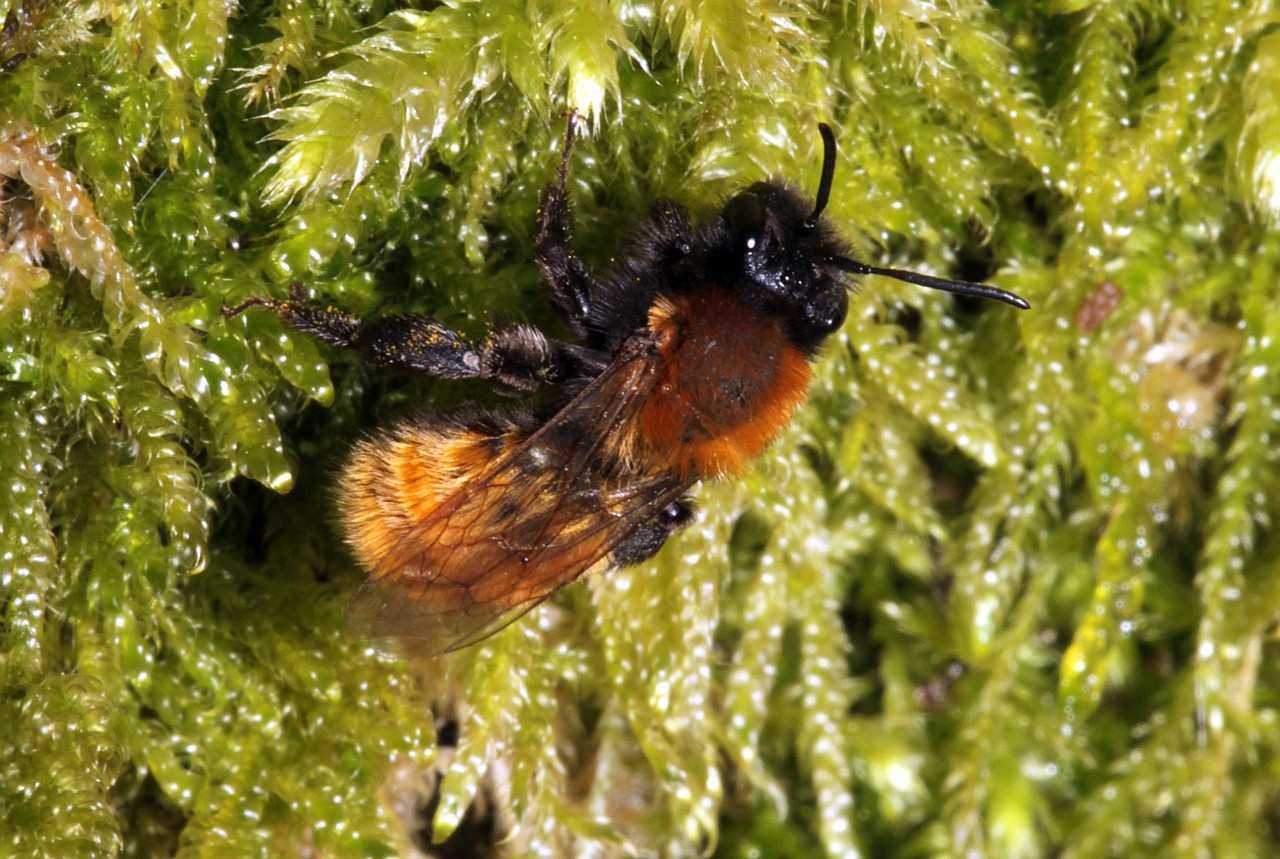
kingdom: Animalia
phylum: Arthropoda
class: Insecta
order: Hymenoptera
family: Andrenidae
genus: Andrena
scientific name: Andrena fulva
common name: Tawny mining bee
